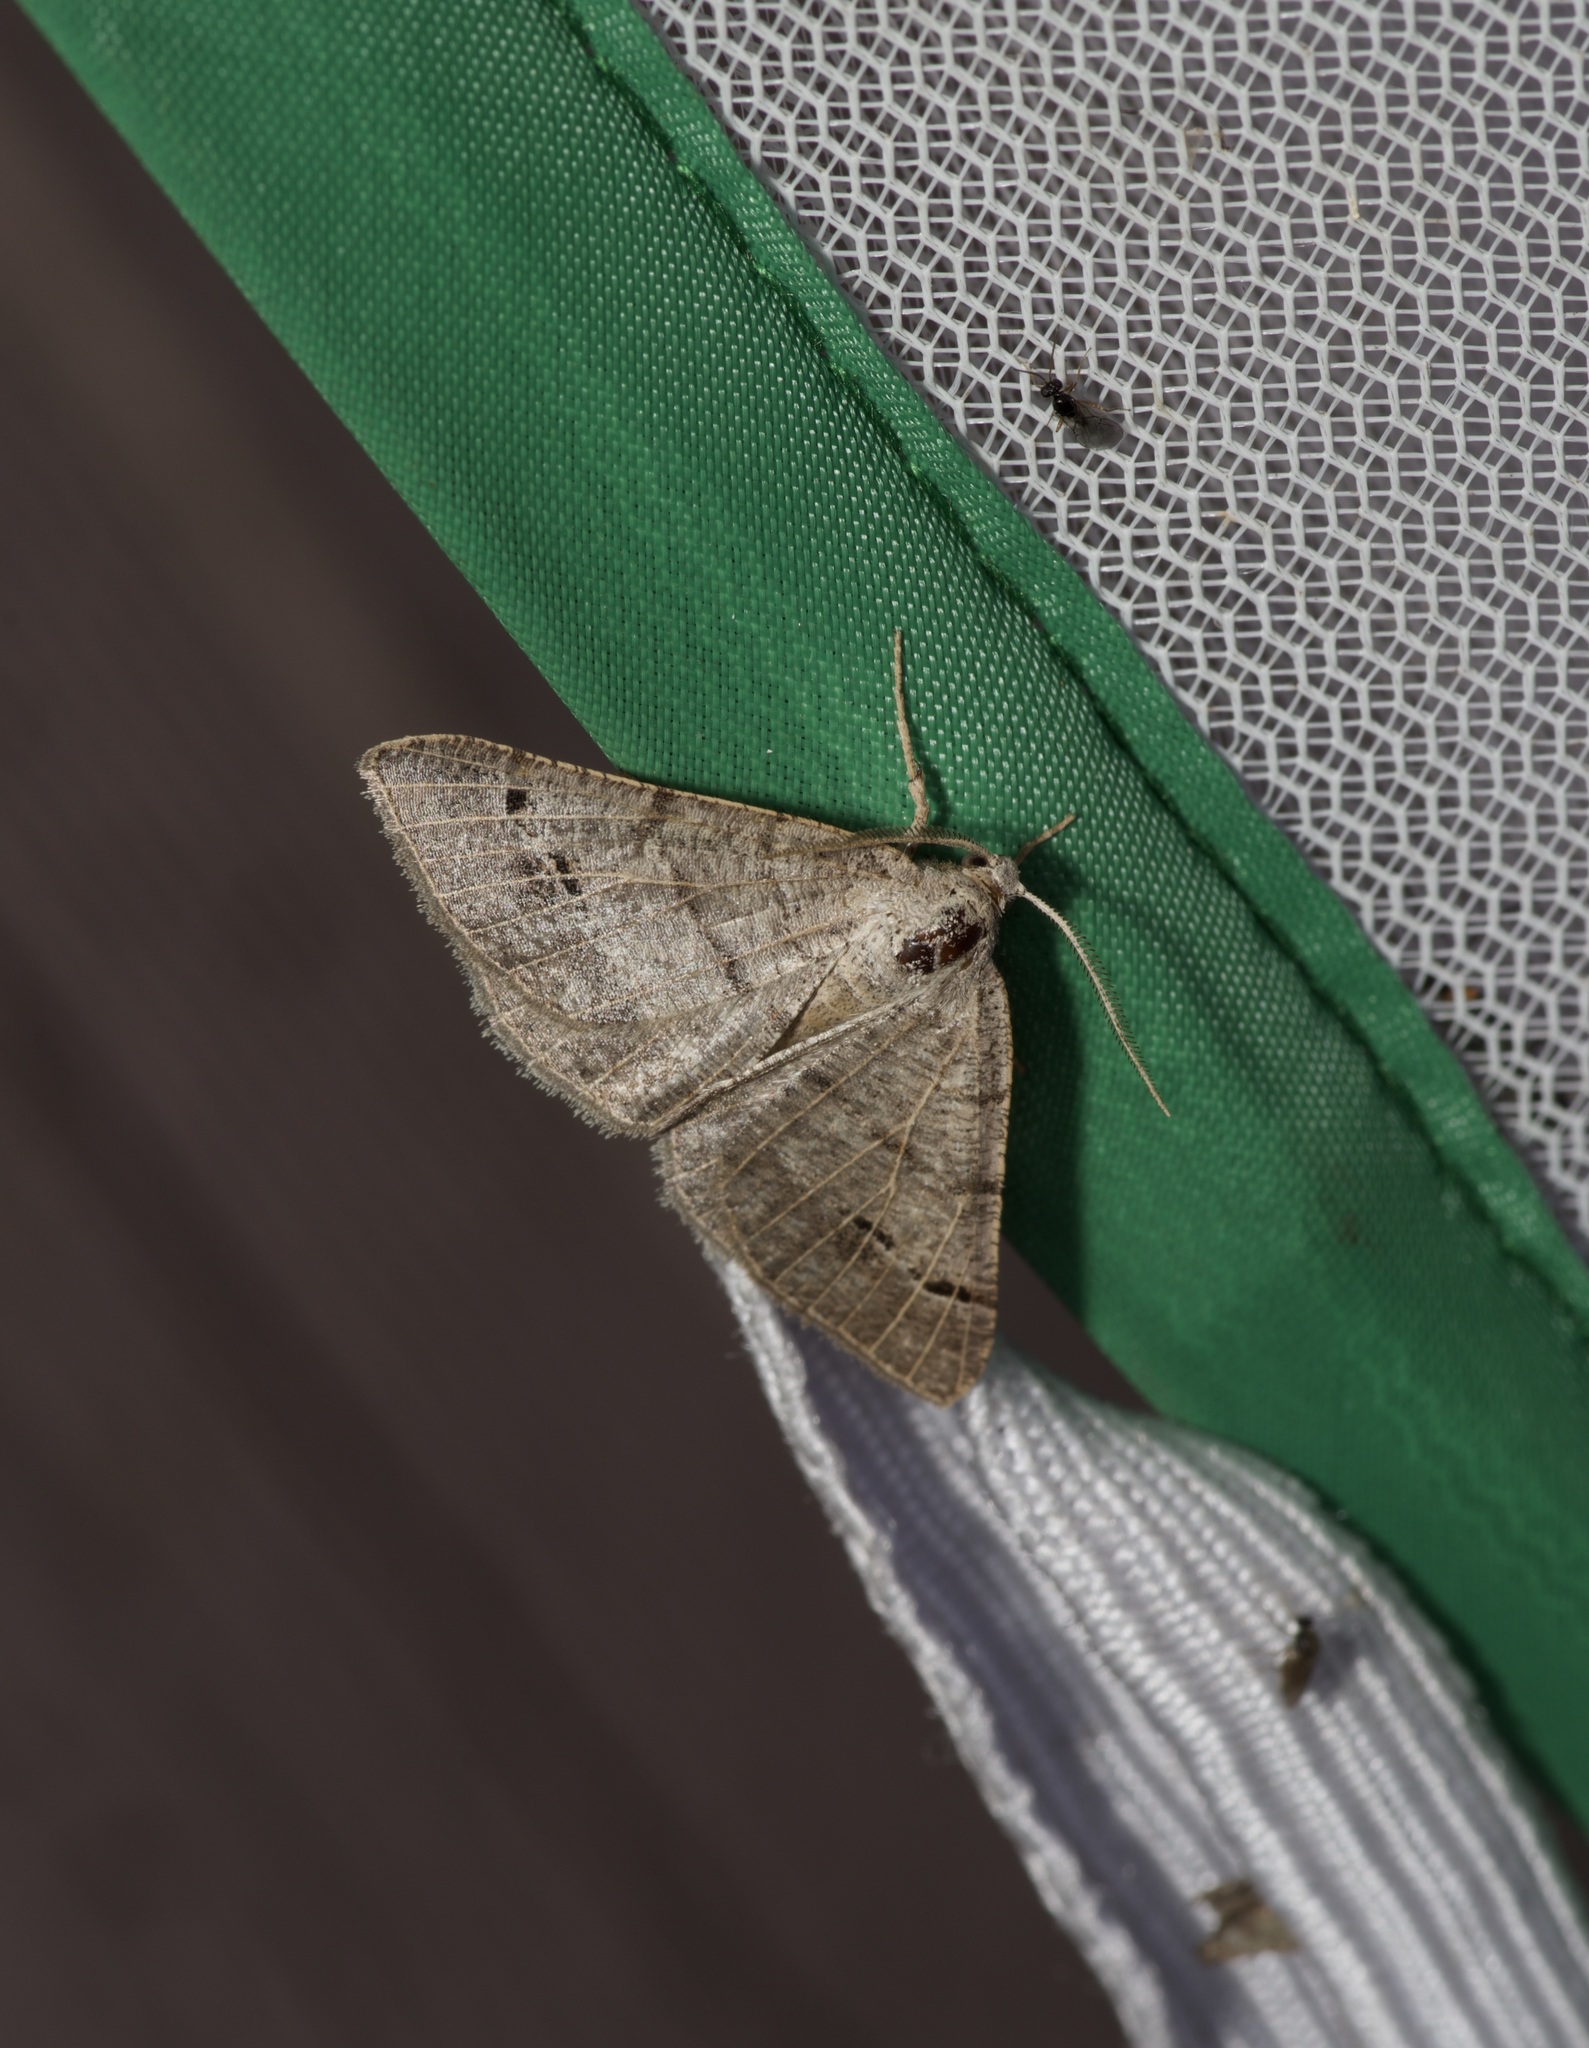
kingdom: Animalia
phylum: Arthropoda
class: Insecta
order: Lepidoptera
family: Geometridae
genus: Isturgia
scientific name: Isturgia dislocaria
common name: Pale-viened enconista
